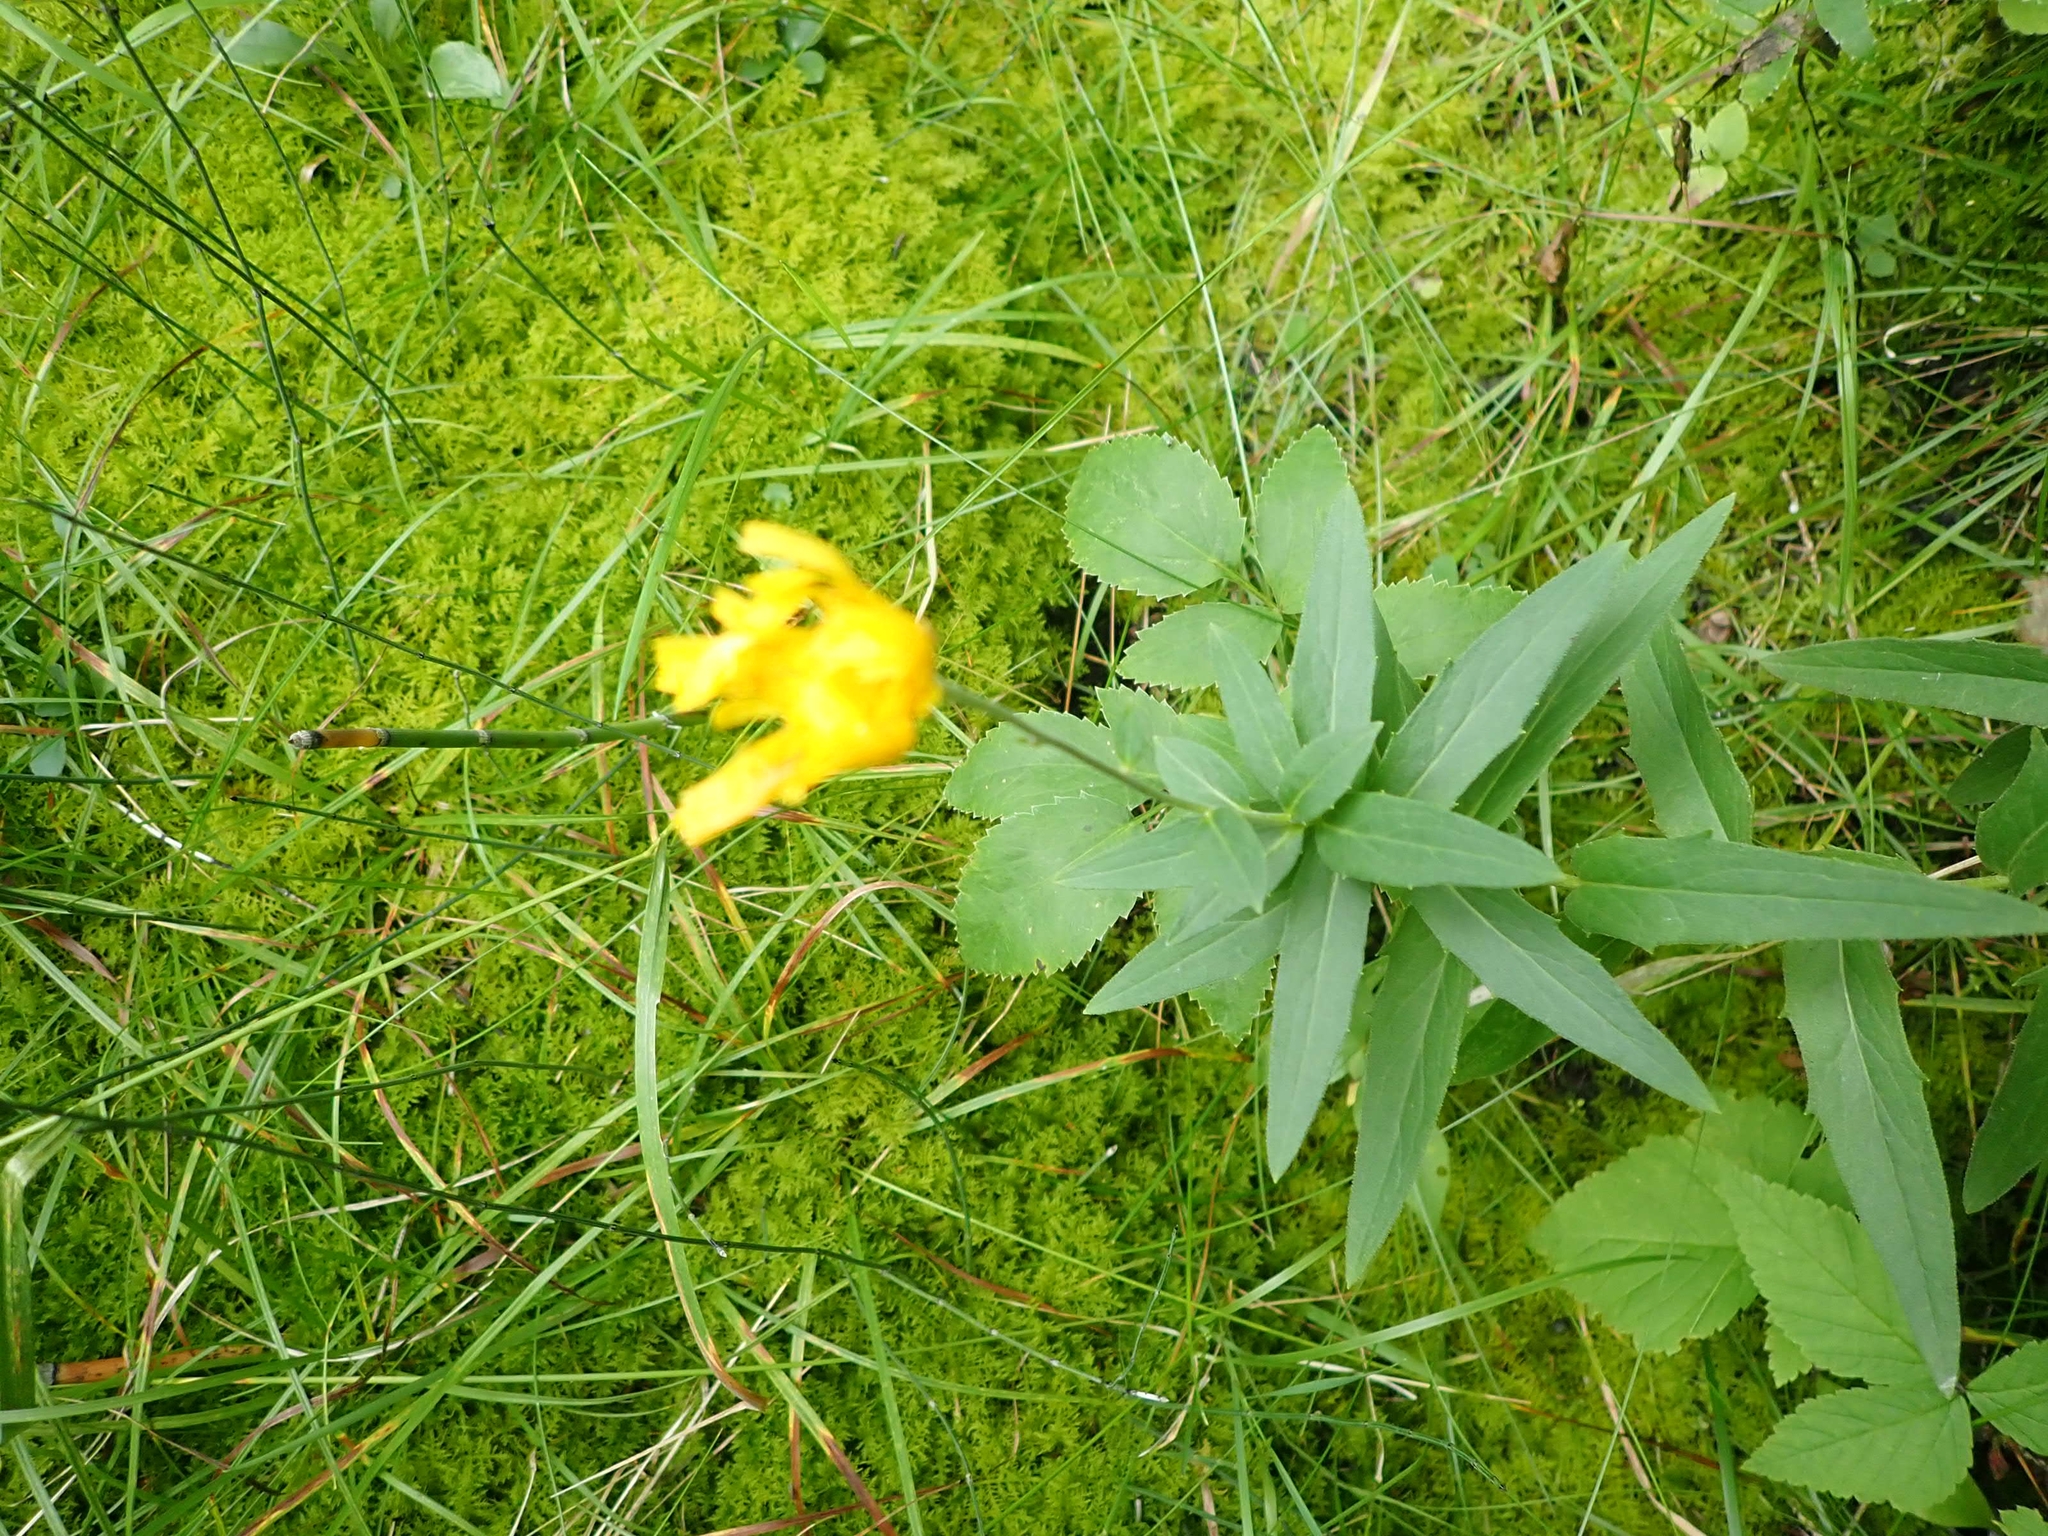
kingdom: Plantae
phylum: Tracheophyta
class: Magnoliopsida
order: Asterales
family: Asteraceae
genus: Hieracium
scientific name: Hieracium umbellatum
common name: Northern hawkweed
